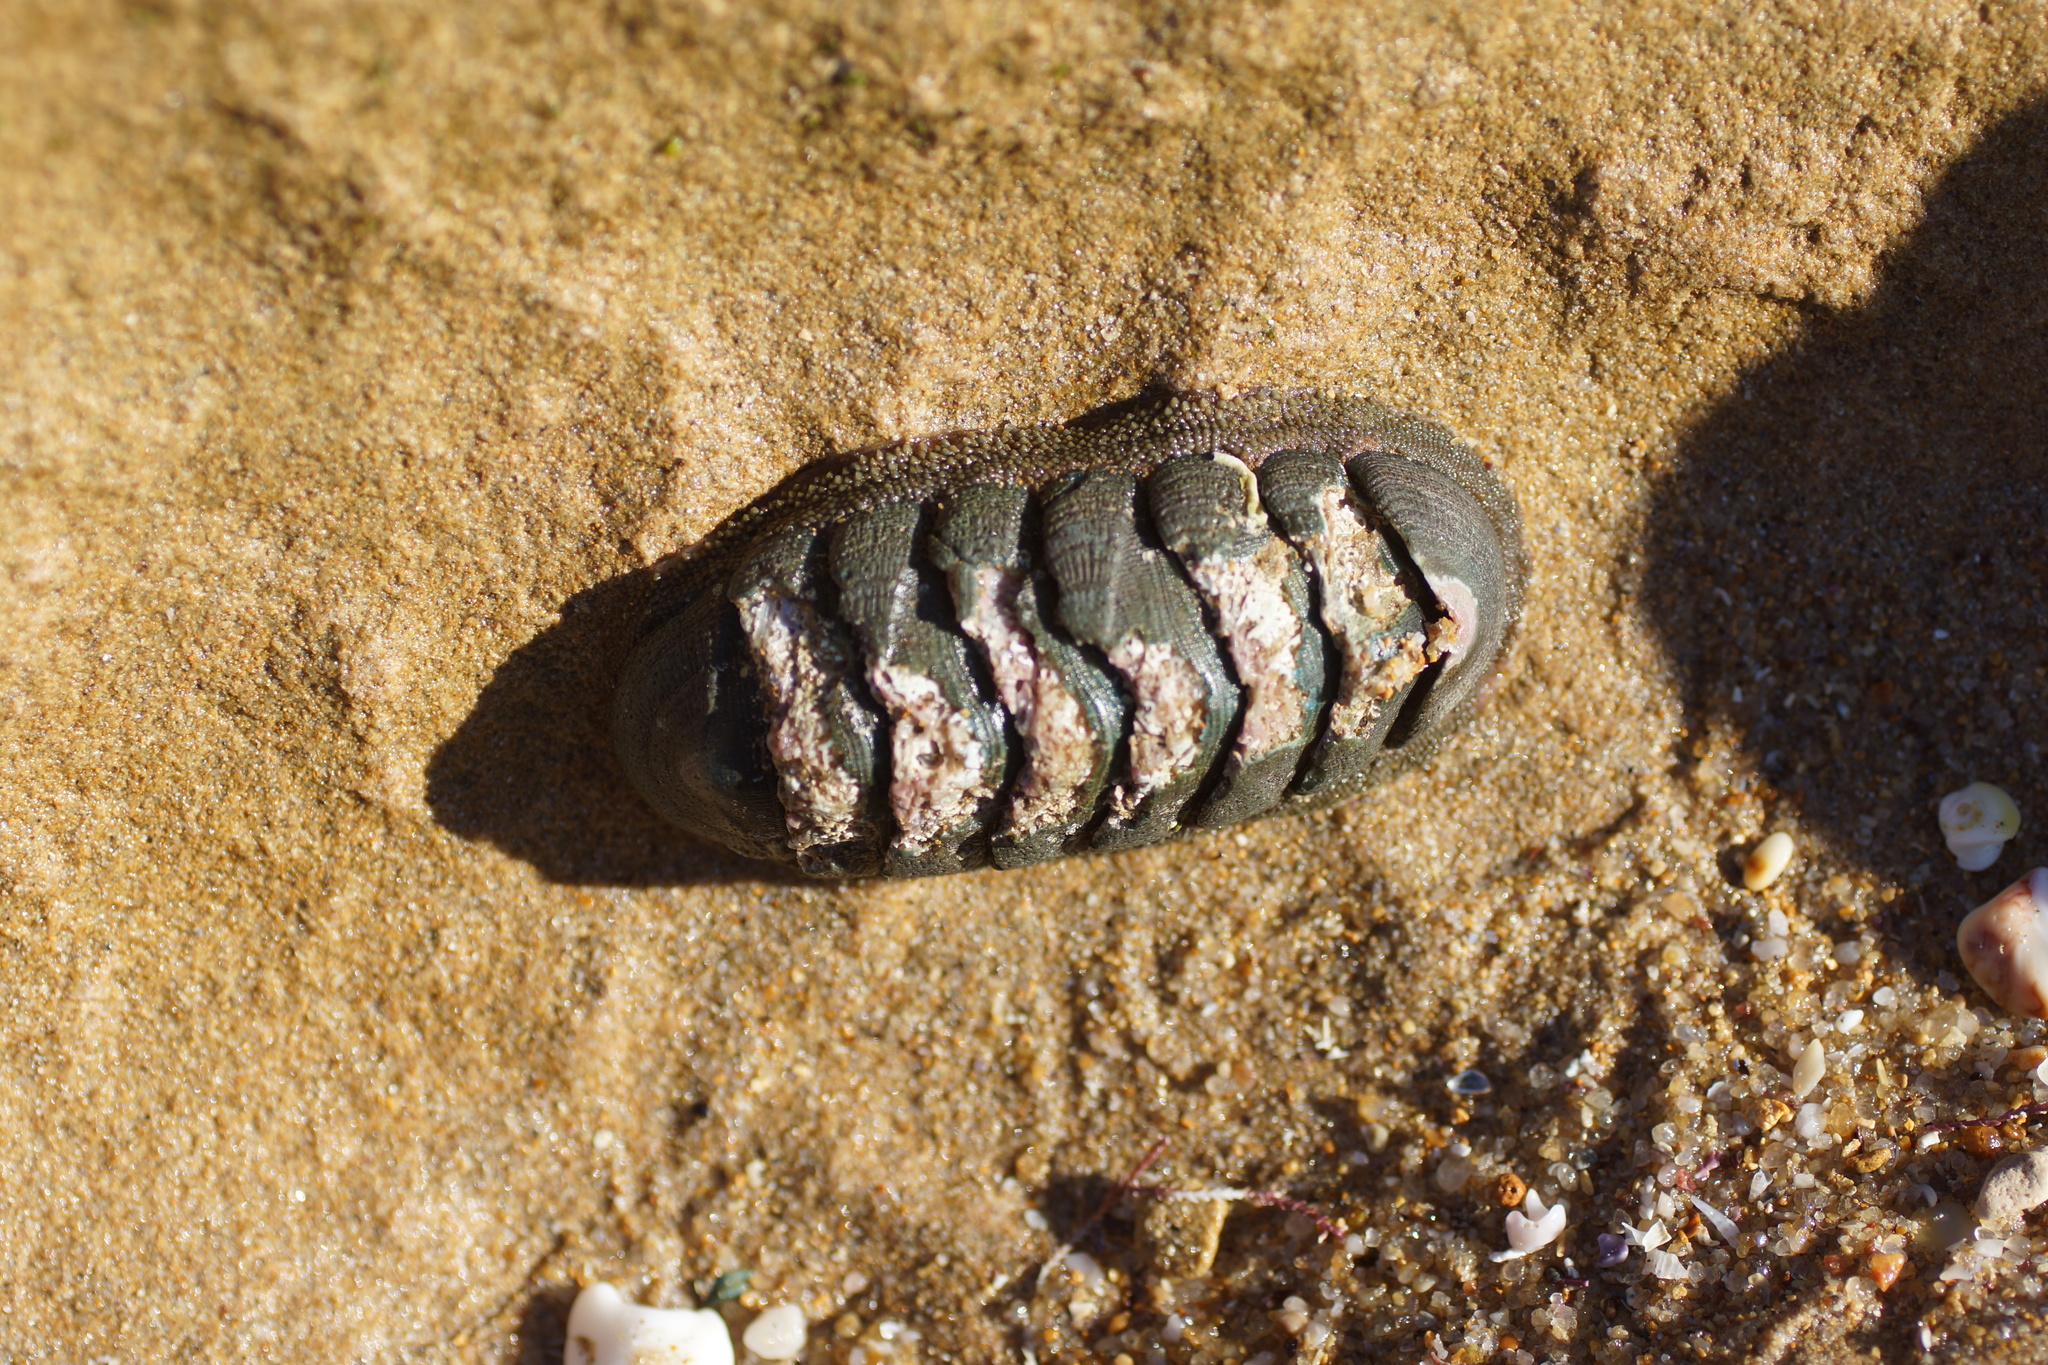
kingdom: Animalia
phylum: Mollusca
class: Polyplacophora
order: Chitonida
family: Ischnochitonidae
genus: Ischnochiton
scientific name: Ischnochiton australis
